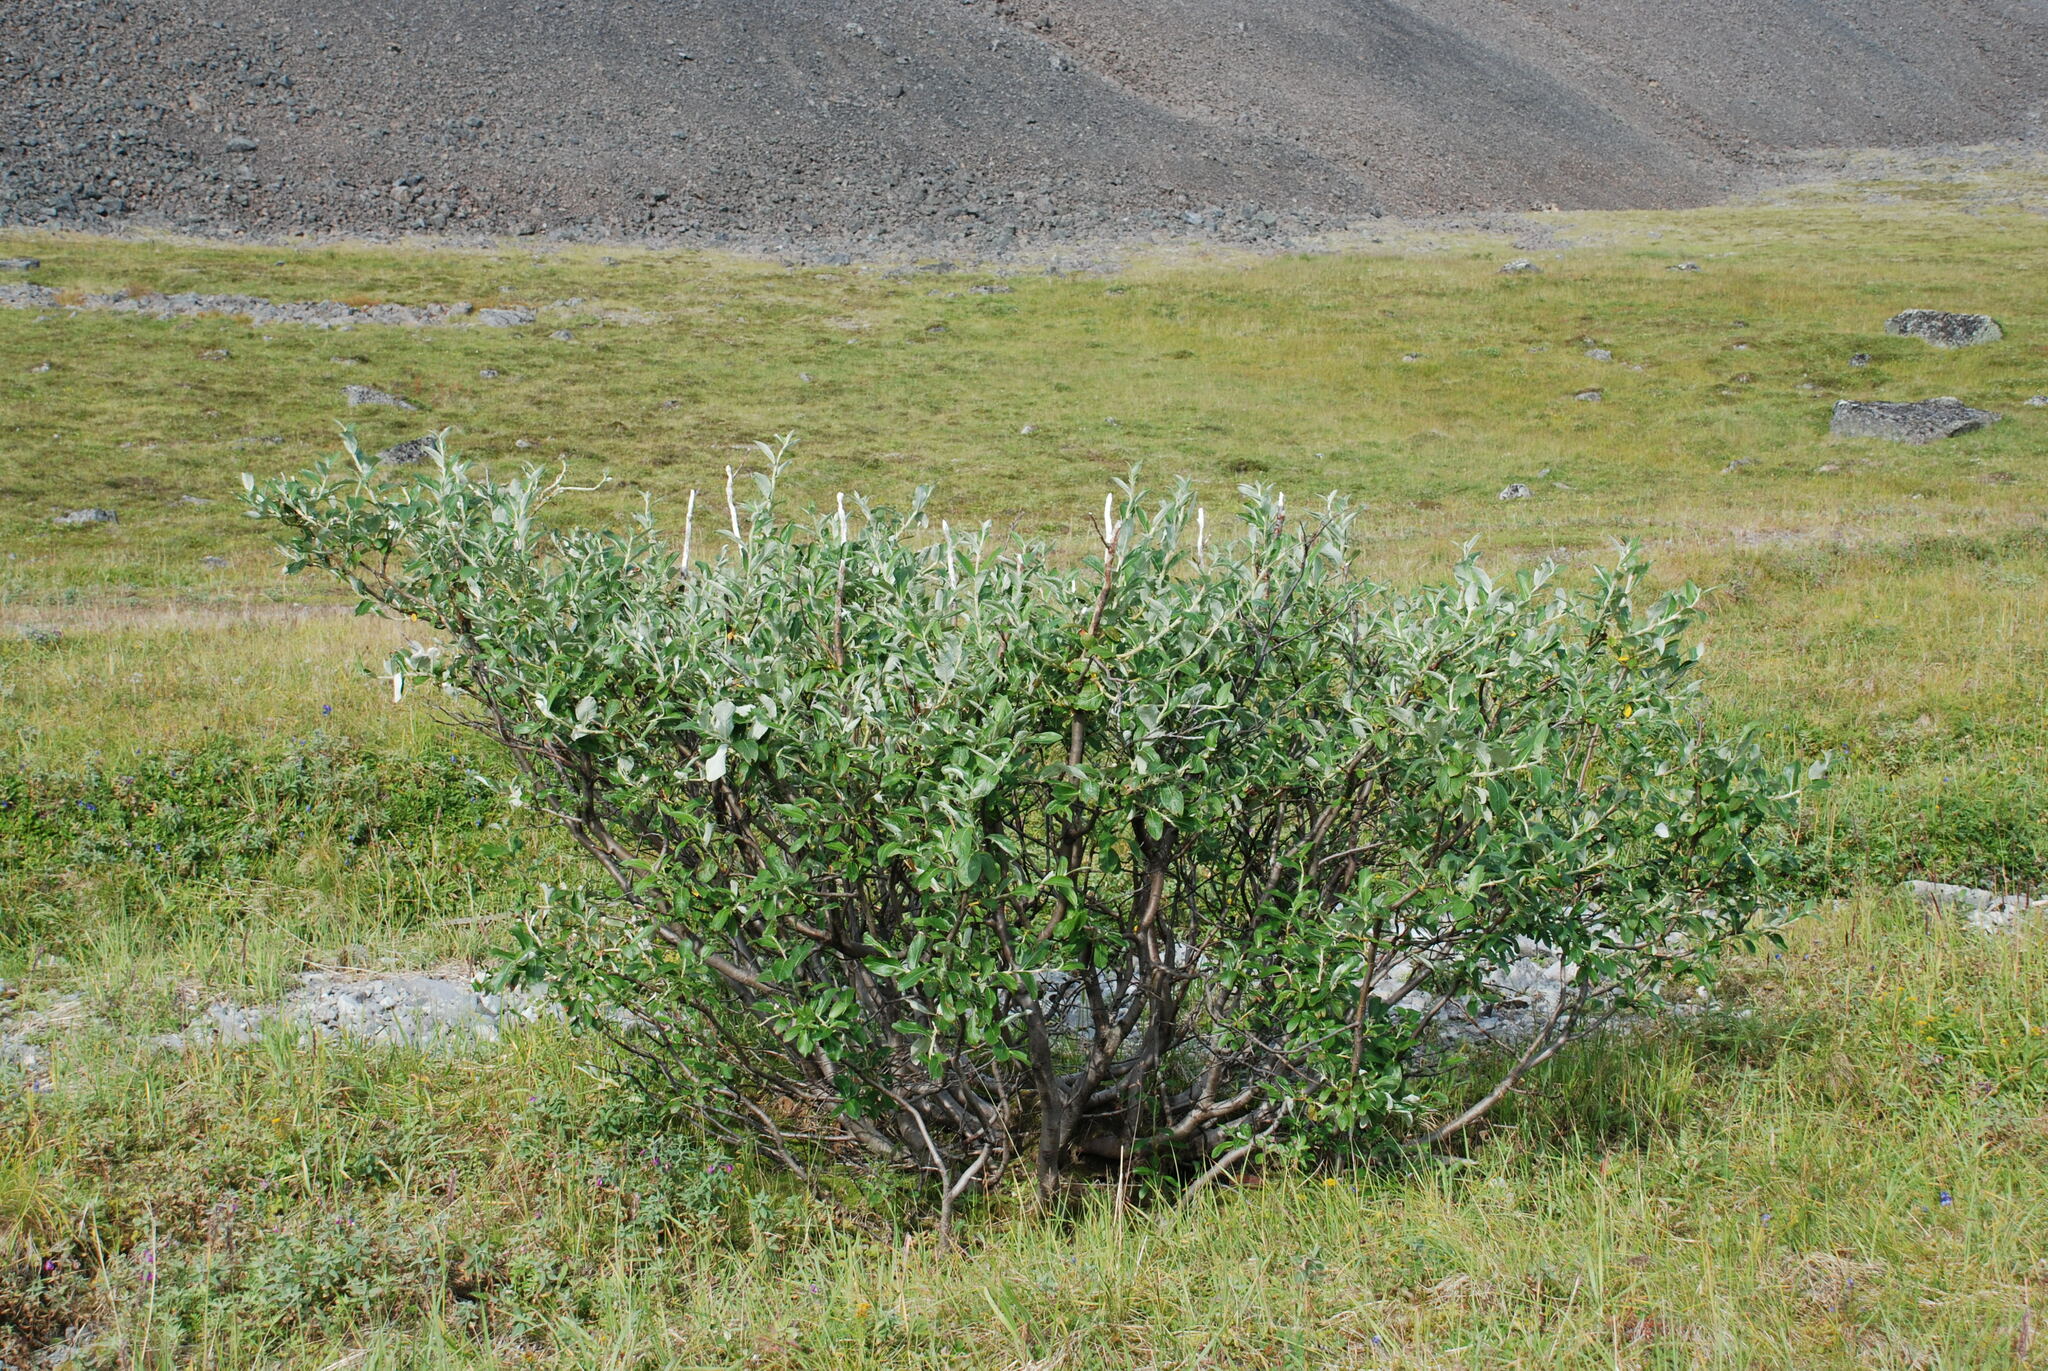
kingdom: Plantae
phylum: Tracheophyta
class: Magnoliopsida
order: Malpighiales
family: Salicaceae
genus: Salix
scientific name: Salix alaxensis
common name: Feltleaf willow
